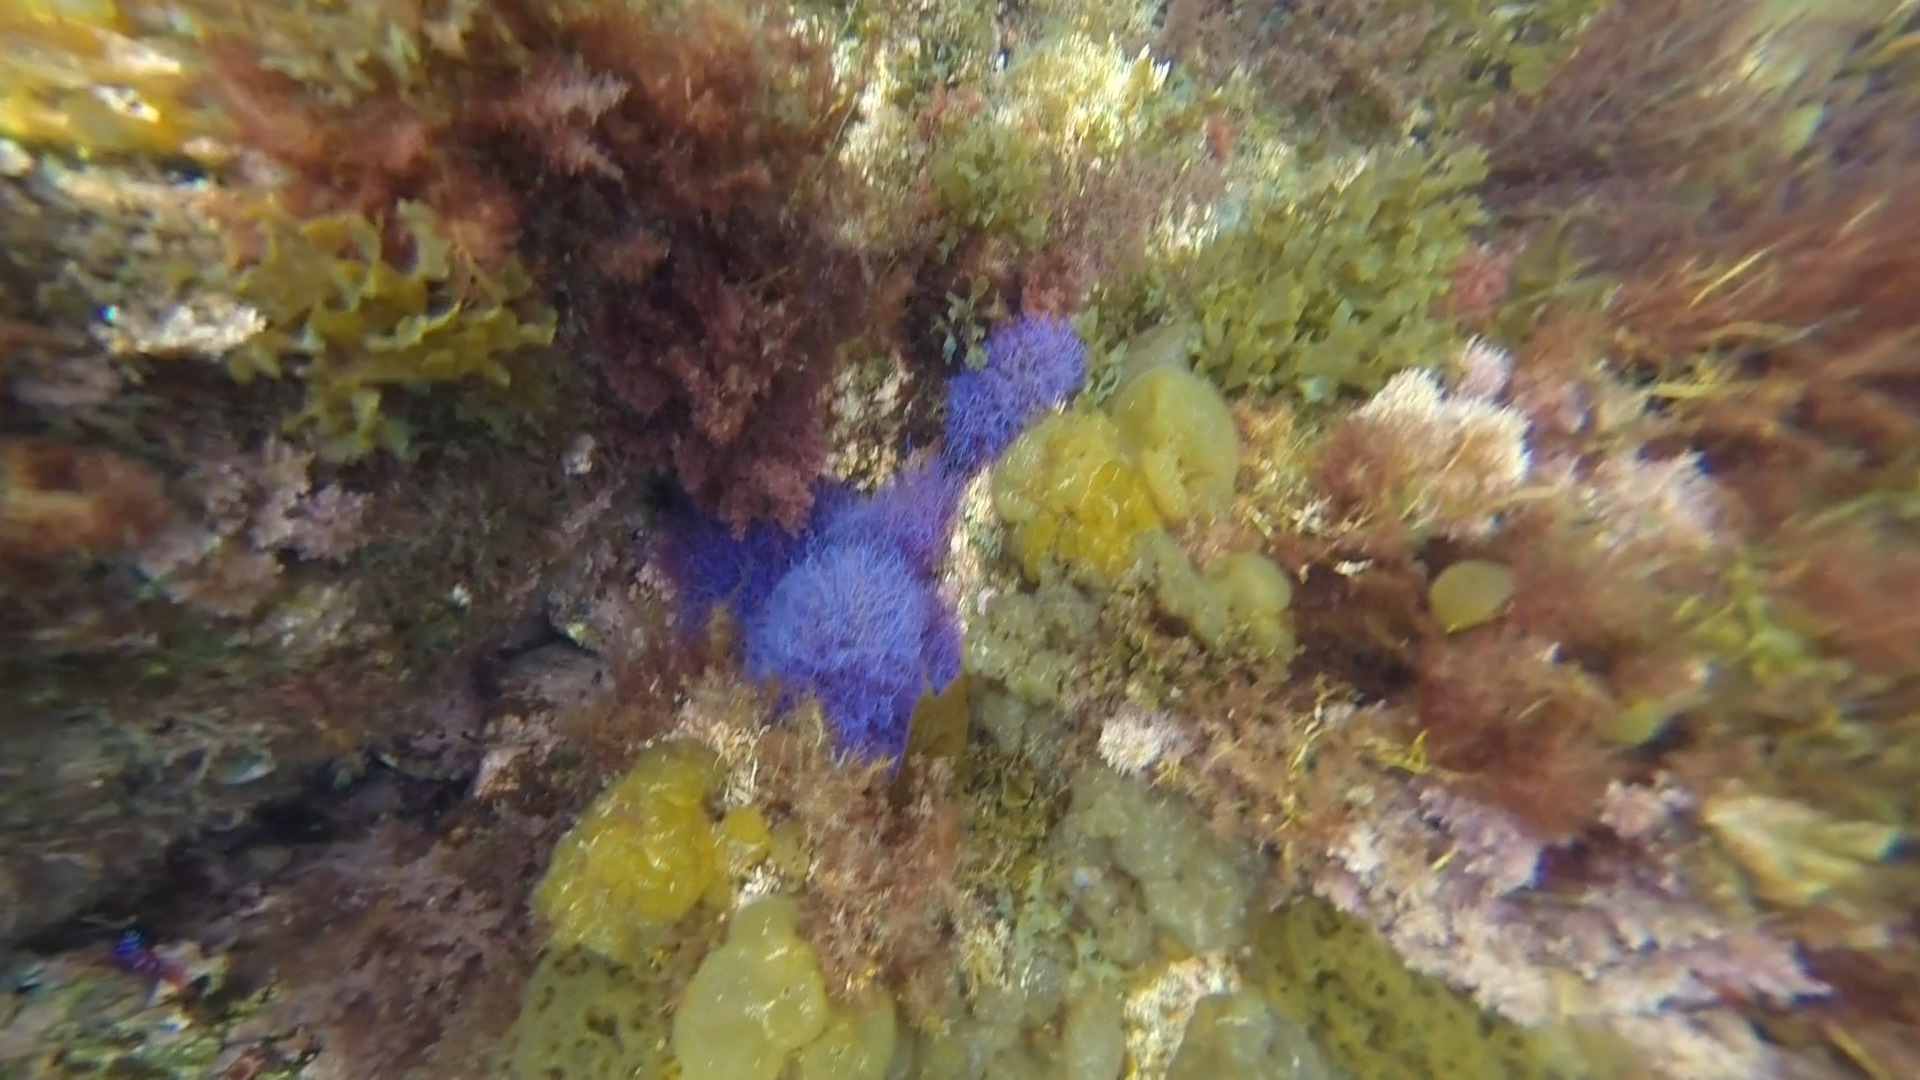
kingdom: Plantae
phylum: Rhodophyta
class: Florideophyceae
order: Ceramiales
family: Rhodomelaceae
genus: Chondria
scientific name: Chondria acrorhizophora
